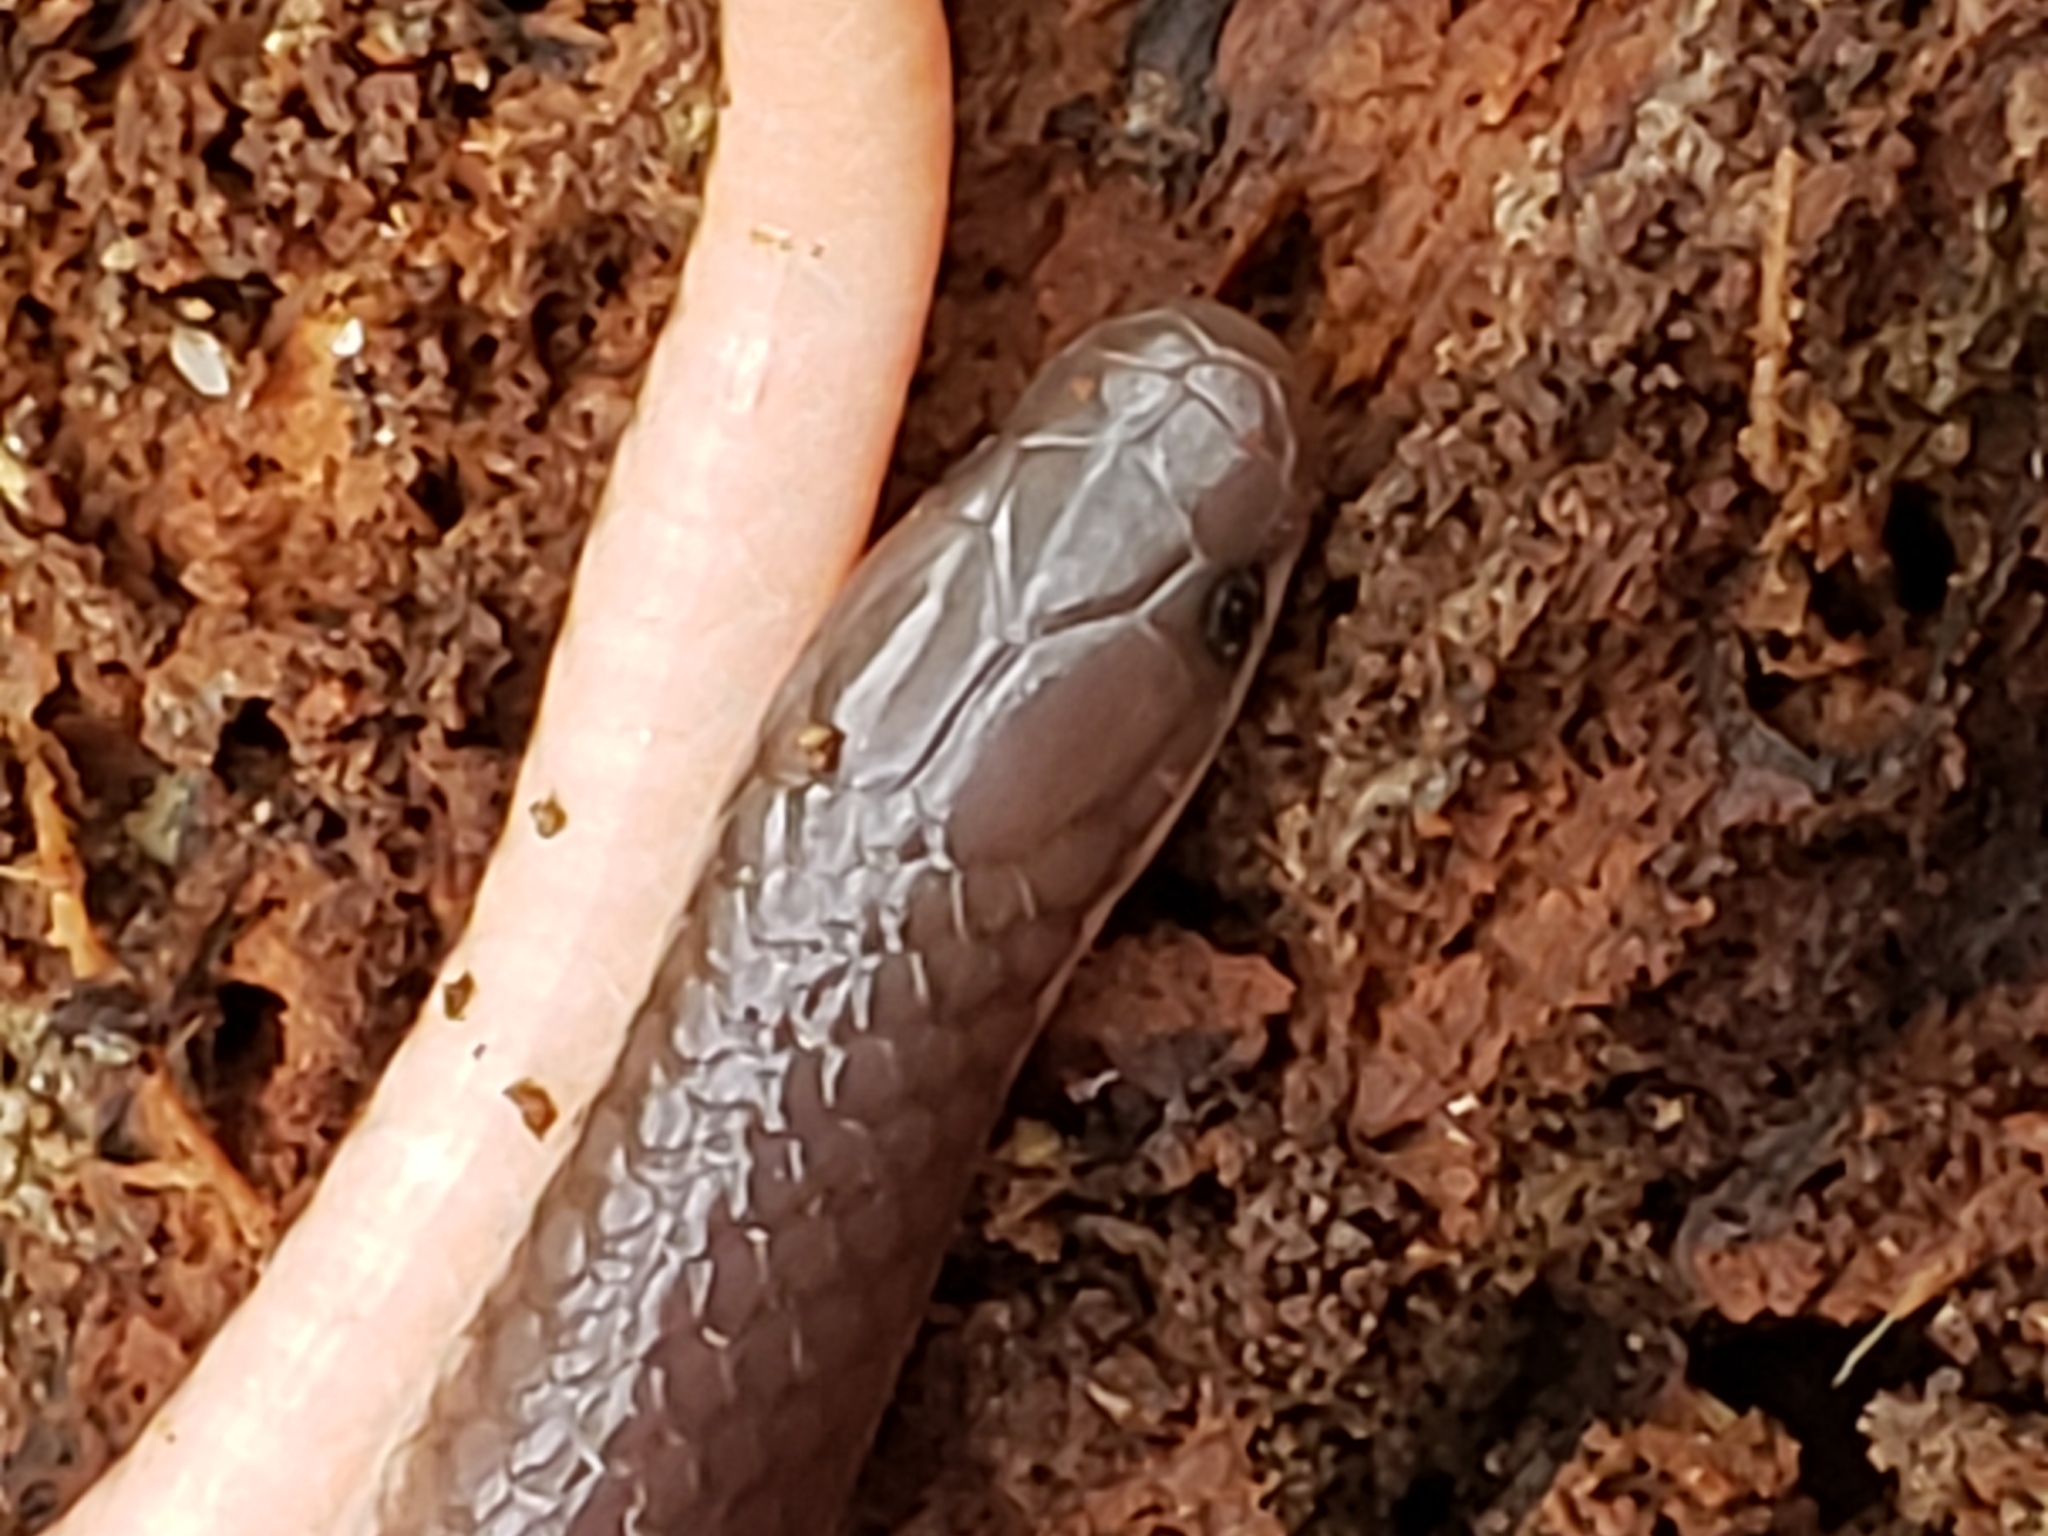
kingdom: Animalia
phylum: Chordata
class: Squamata
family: Colubridae
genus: Carphophis
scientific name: Carphophis amoenus
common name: Eastern worm snake
